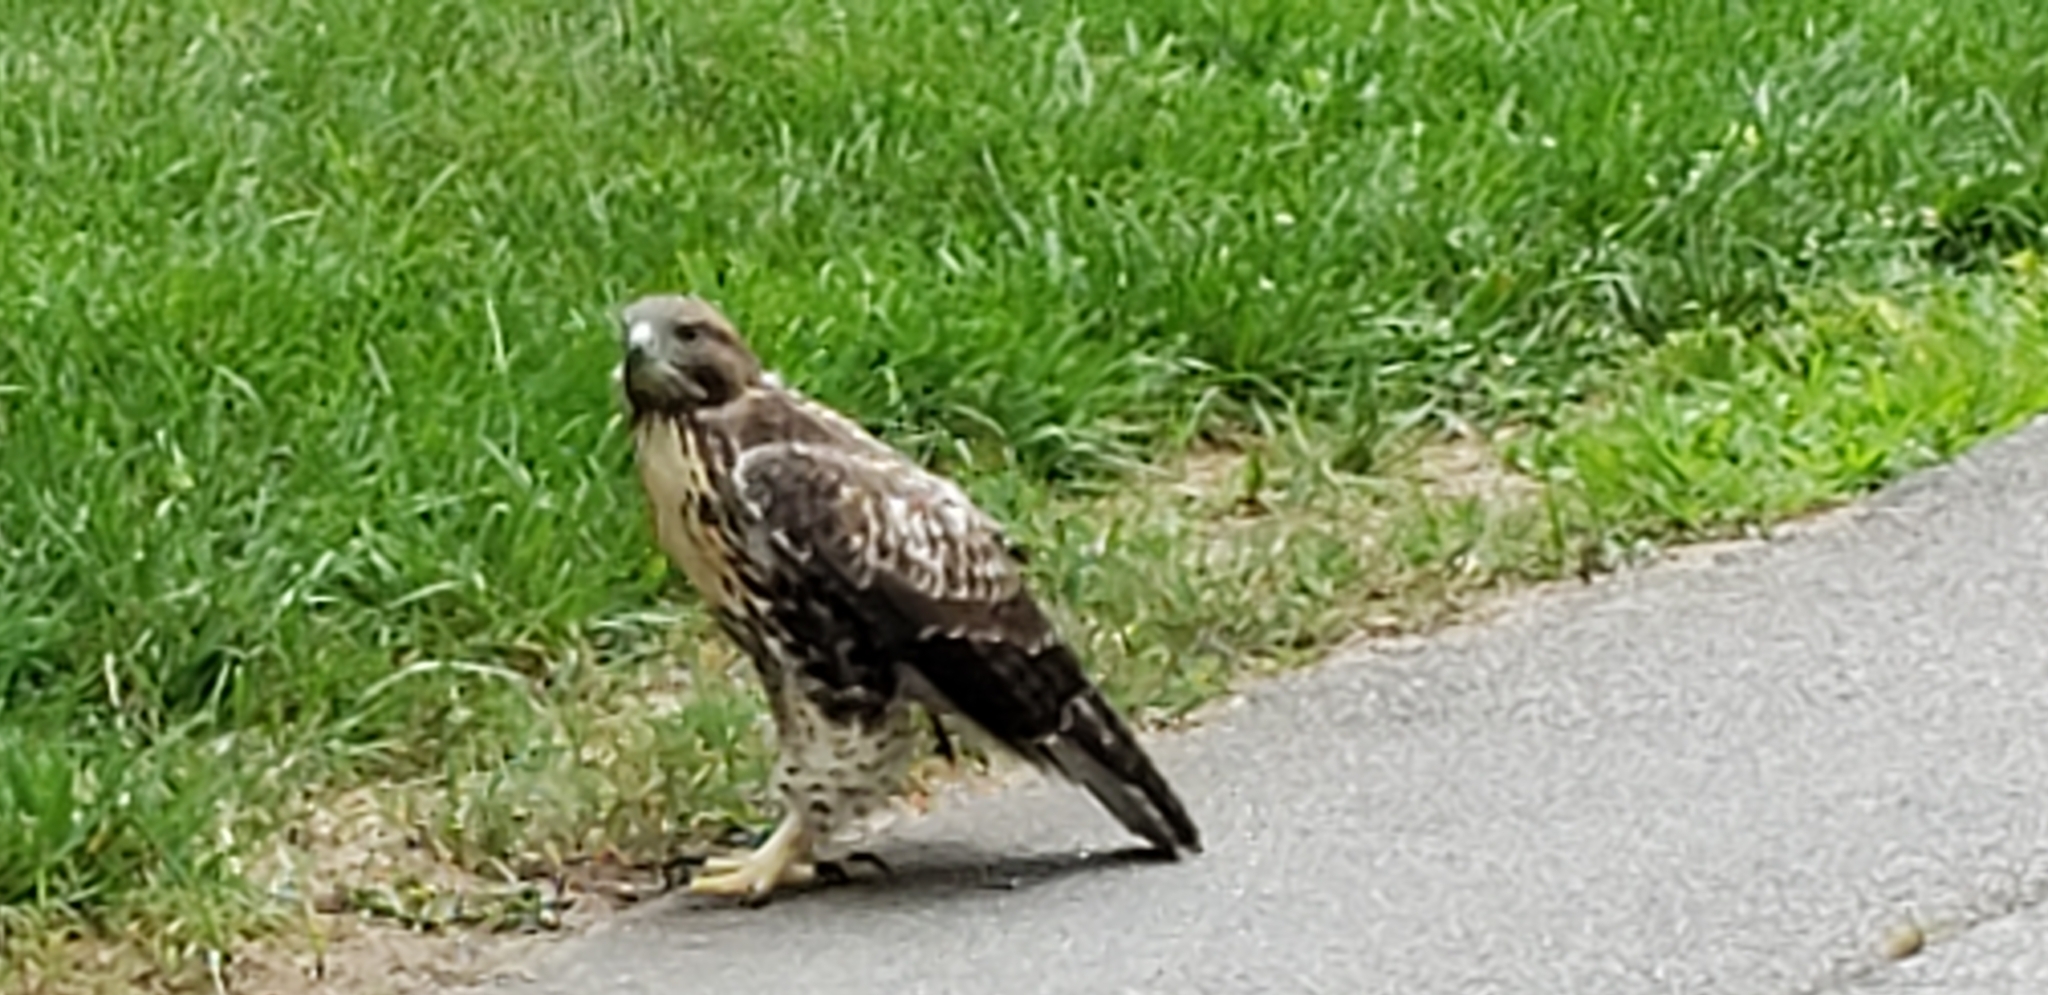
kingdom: Animalia
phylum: Chordata
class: Aves
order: Accipitriformes
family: Accipitridae
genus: Buteo
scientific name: Buteo jamaicensis
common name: Red-tailed hawk
